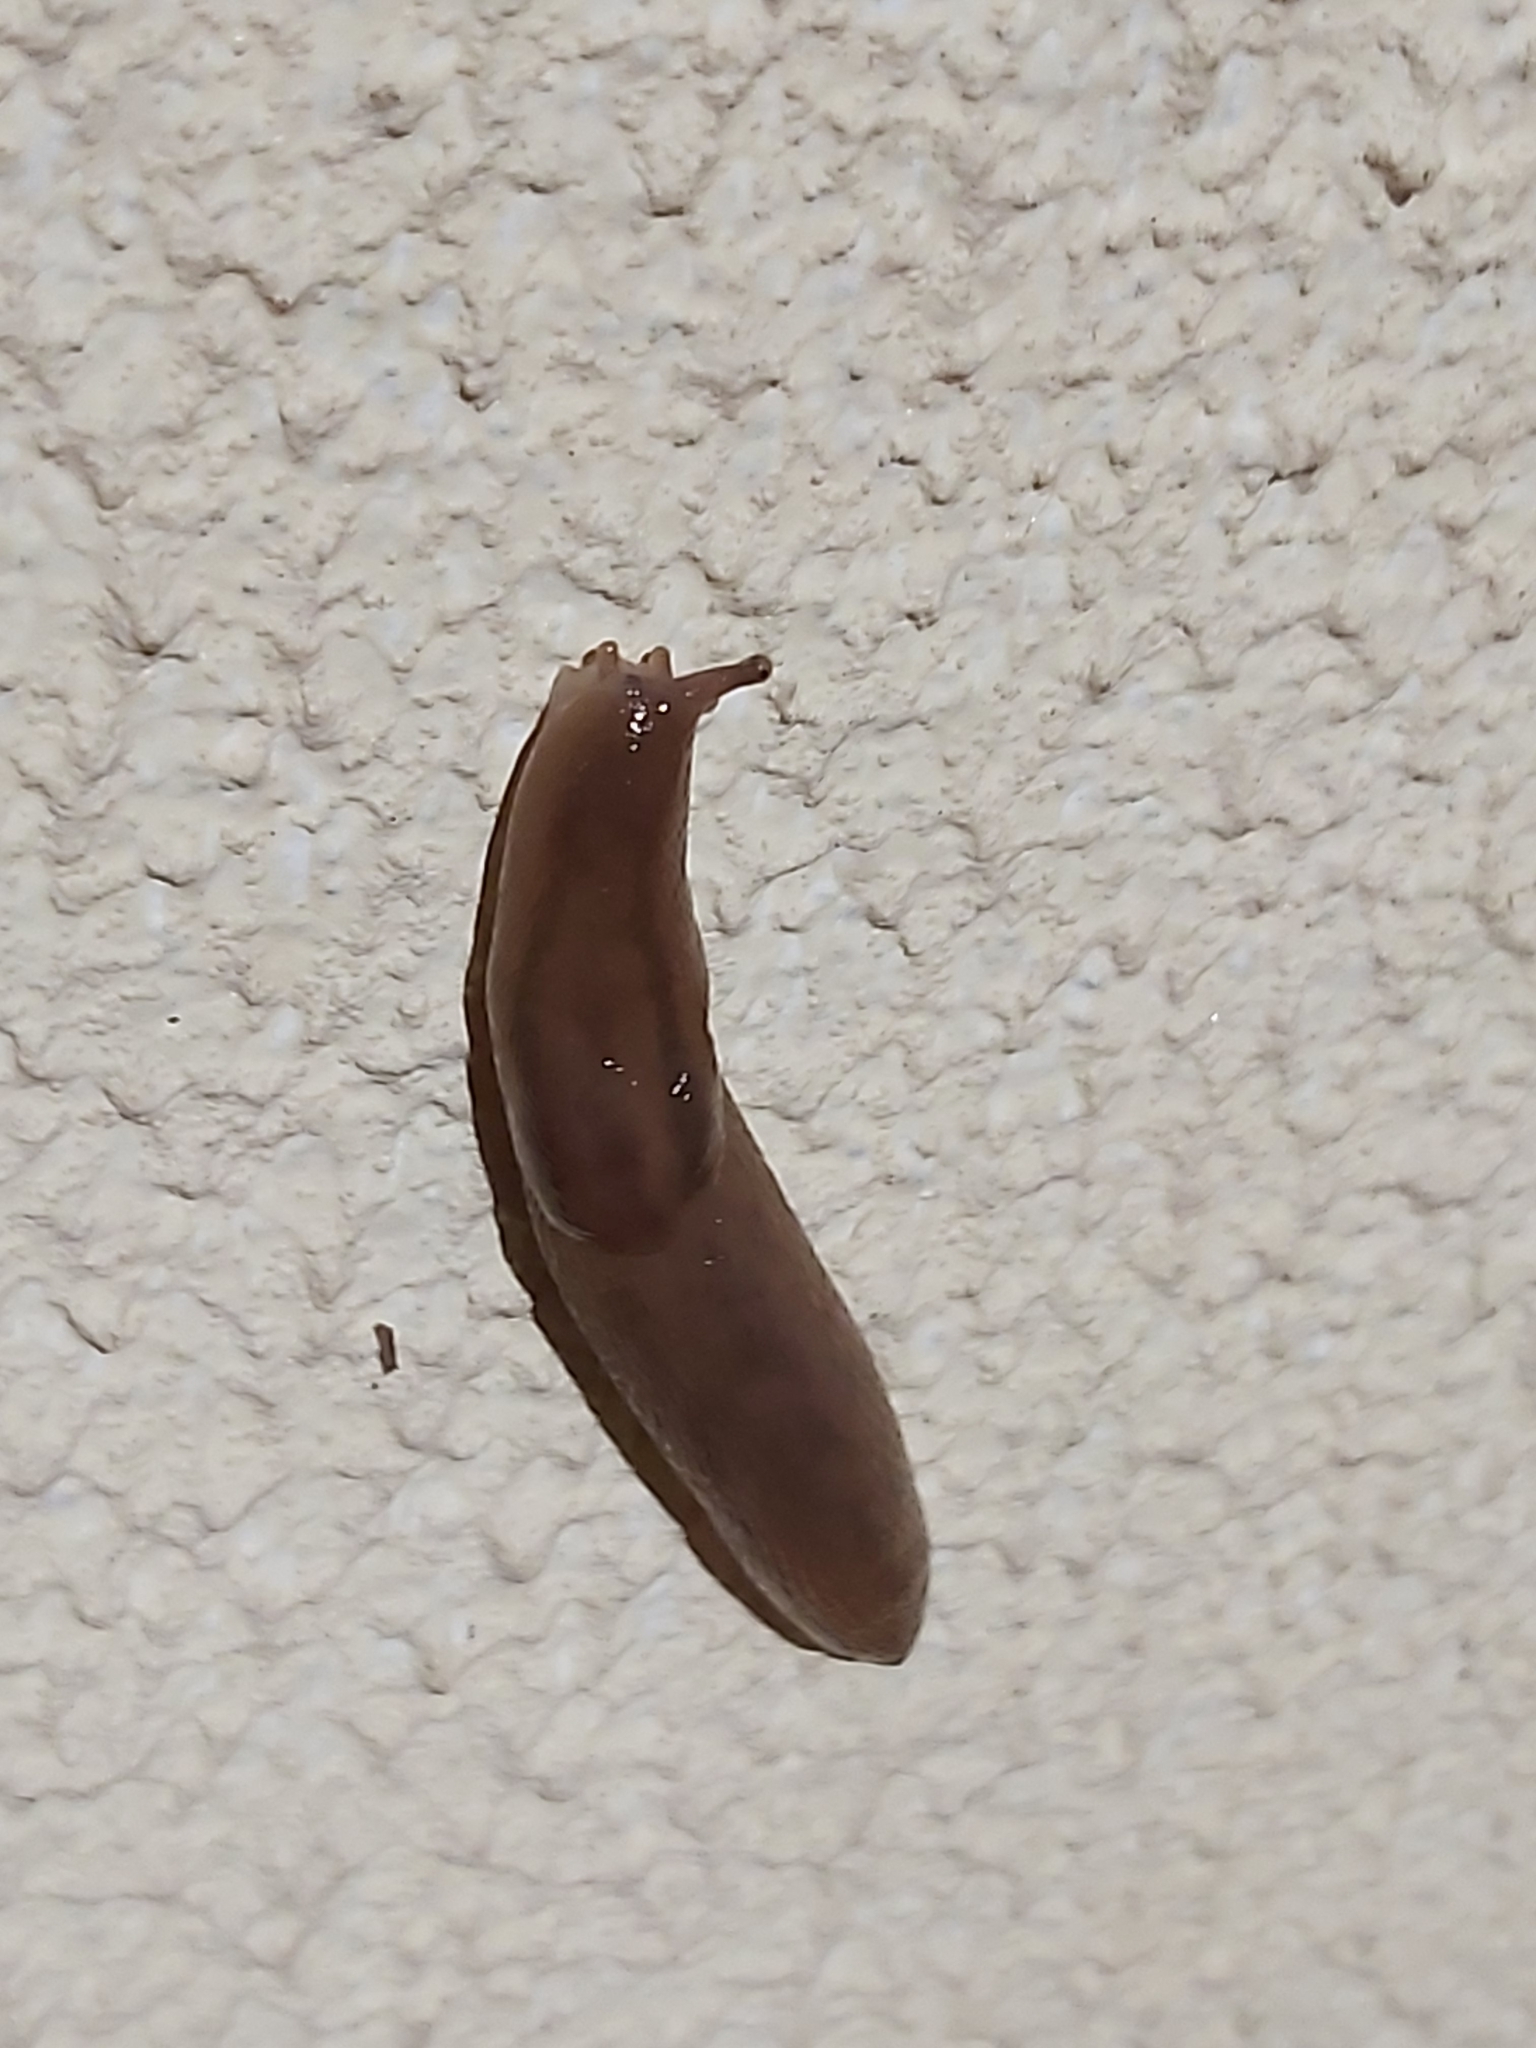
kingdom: Animalia
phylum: Mollusca
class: Gastropoda
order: Stylommatophora
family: Limacidae
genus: Ambigolimax
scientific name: Ambigolimax
